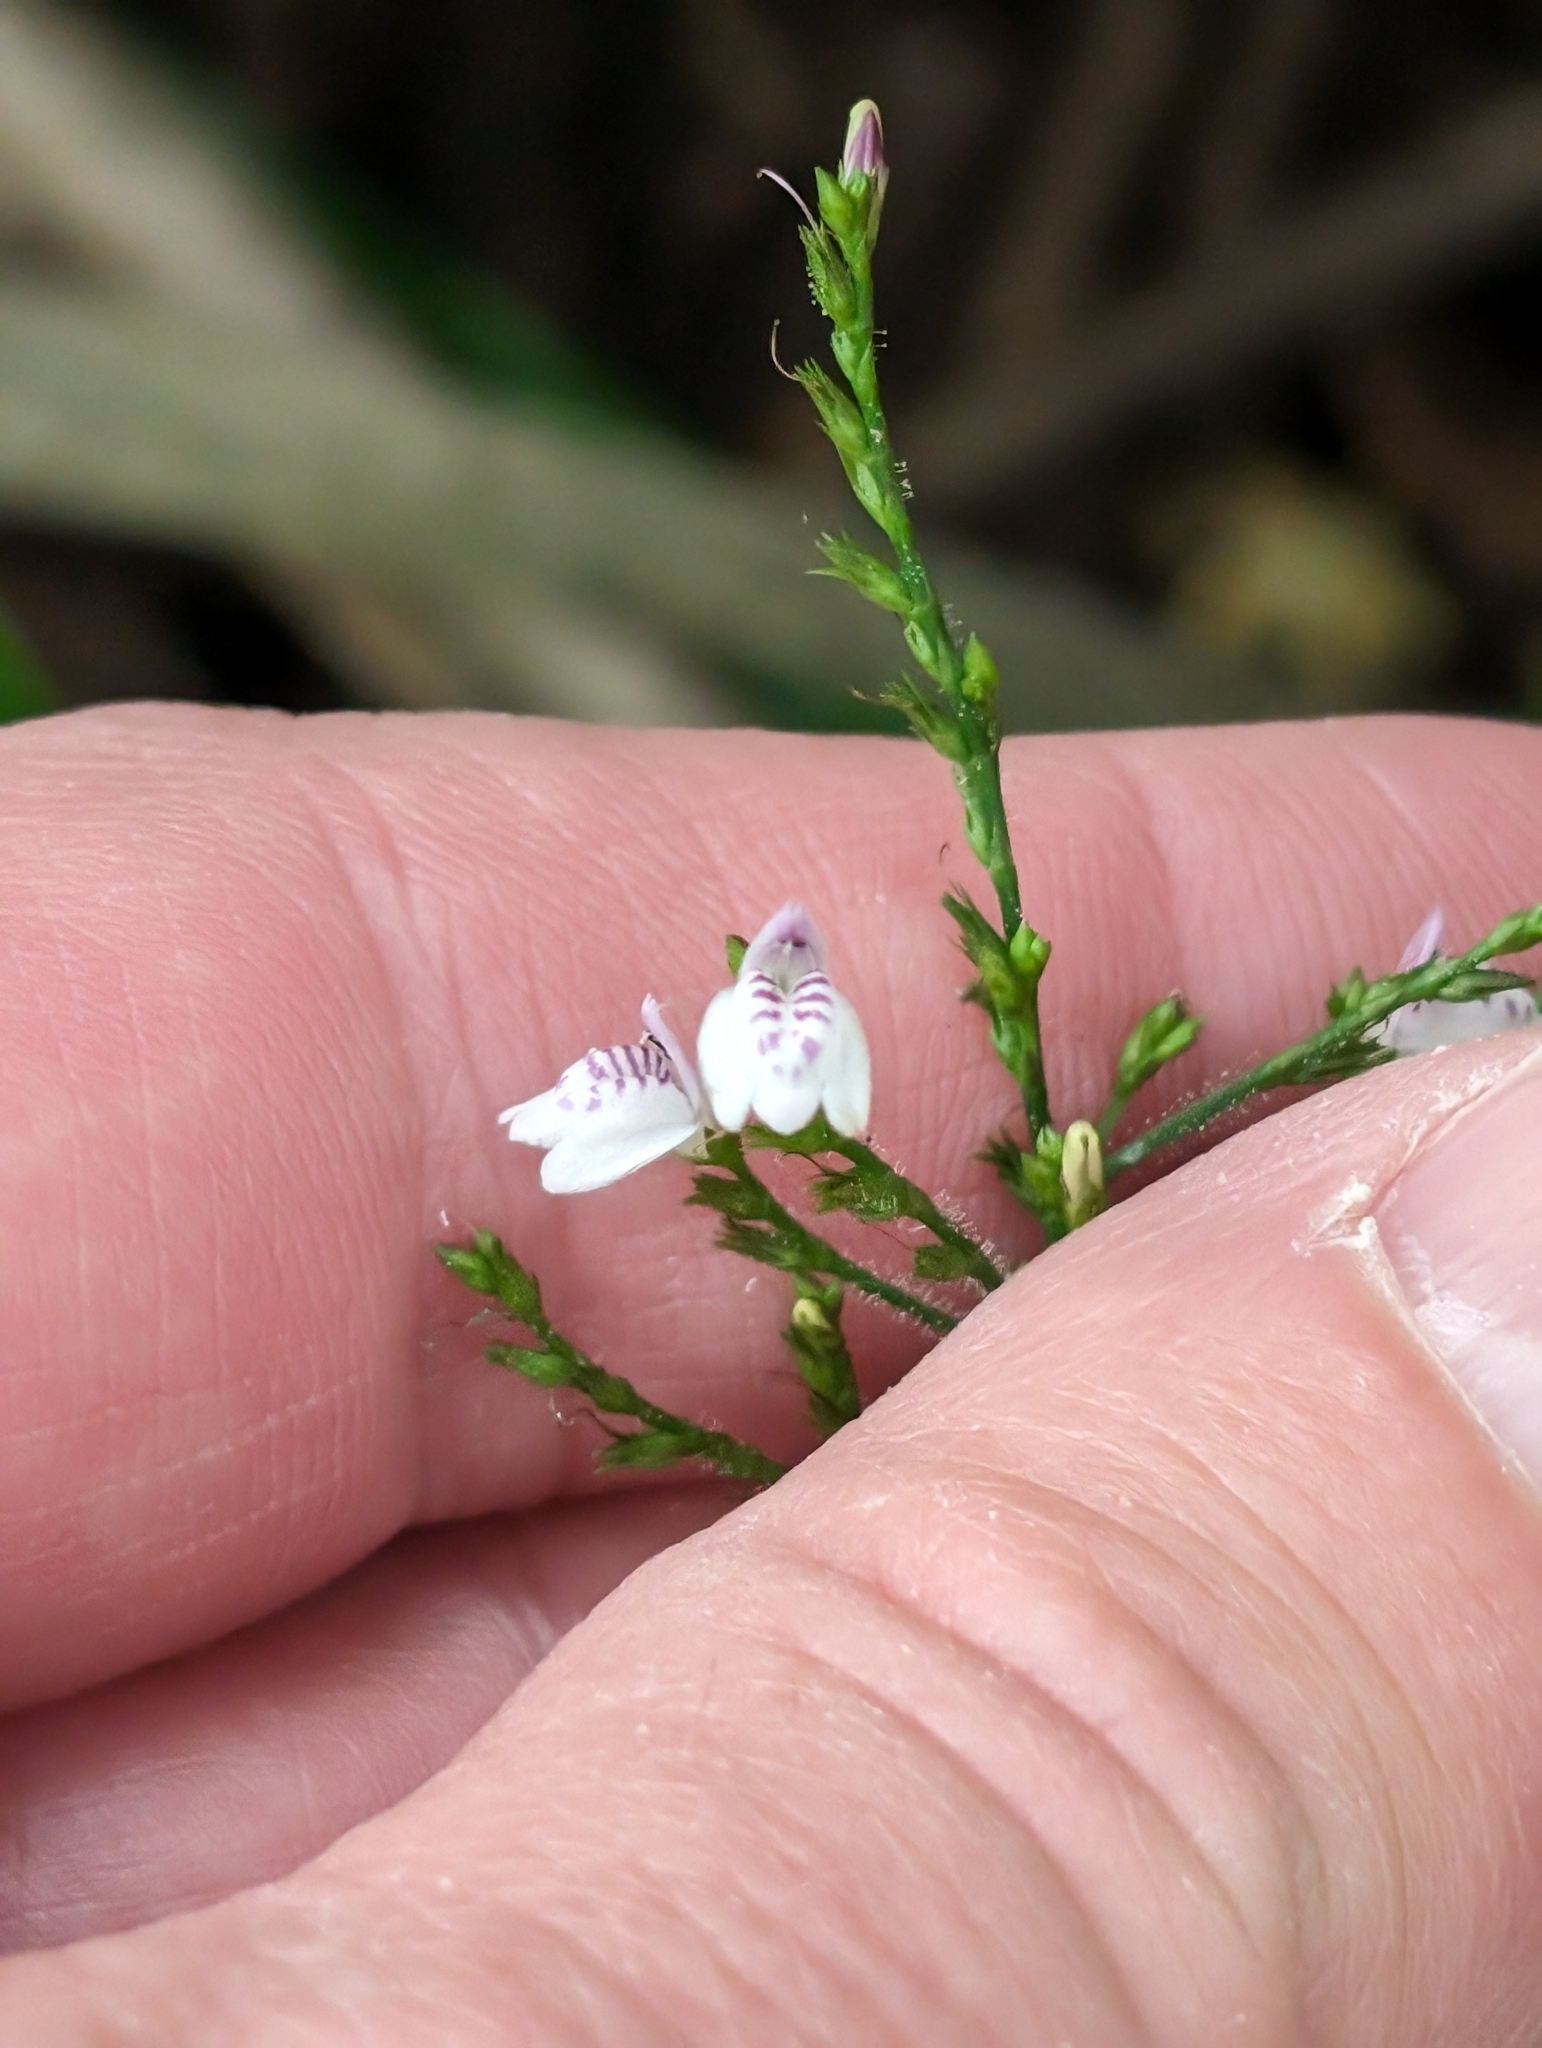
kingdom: Plantae
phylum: Tracheophyta
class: Magnoliopsida
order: Lamiales
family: Acanthaceae
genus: Justicia
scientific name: Justicia comata
